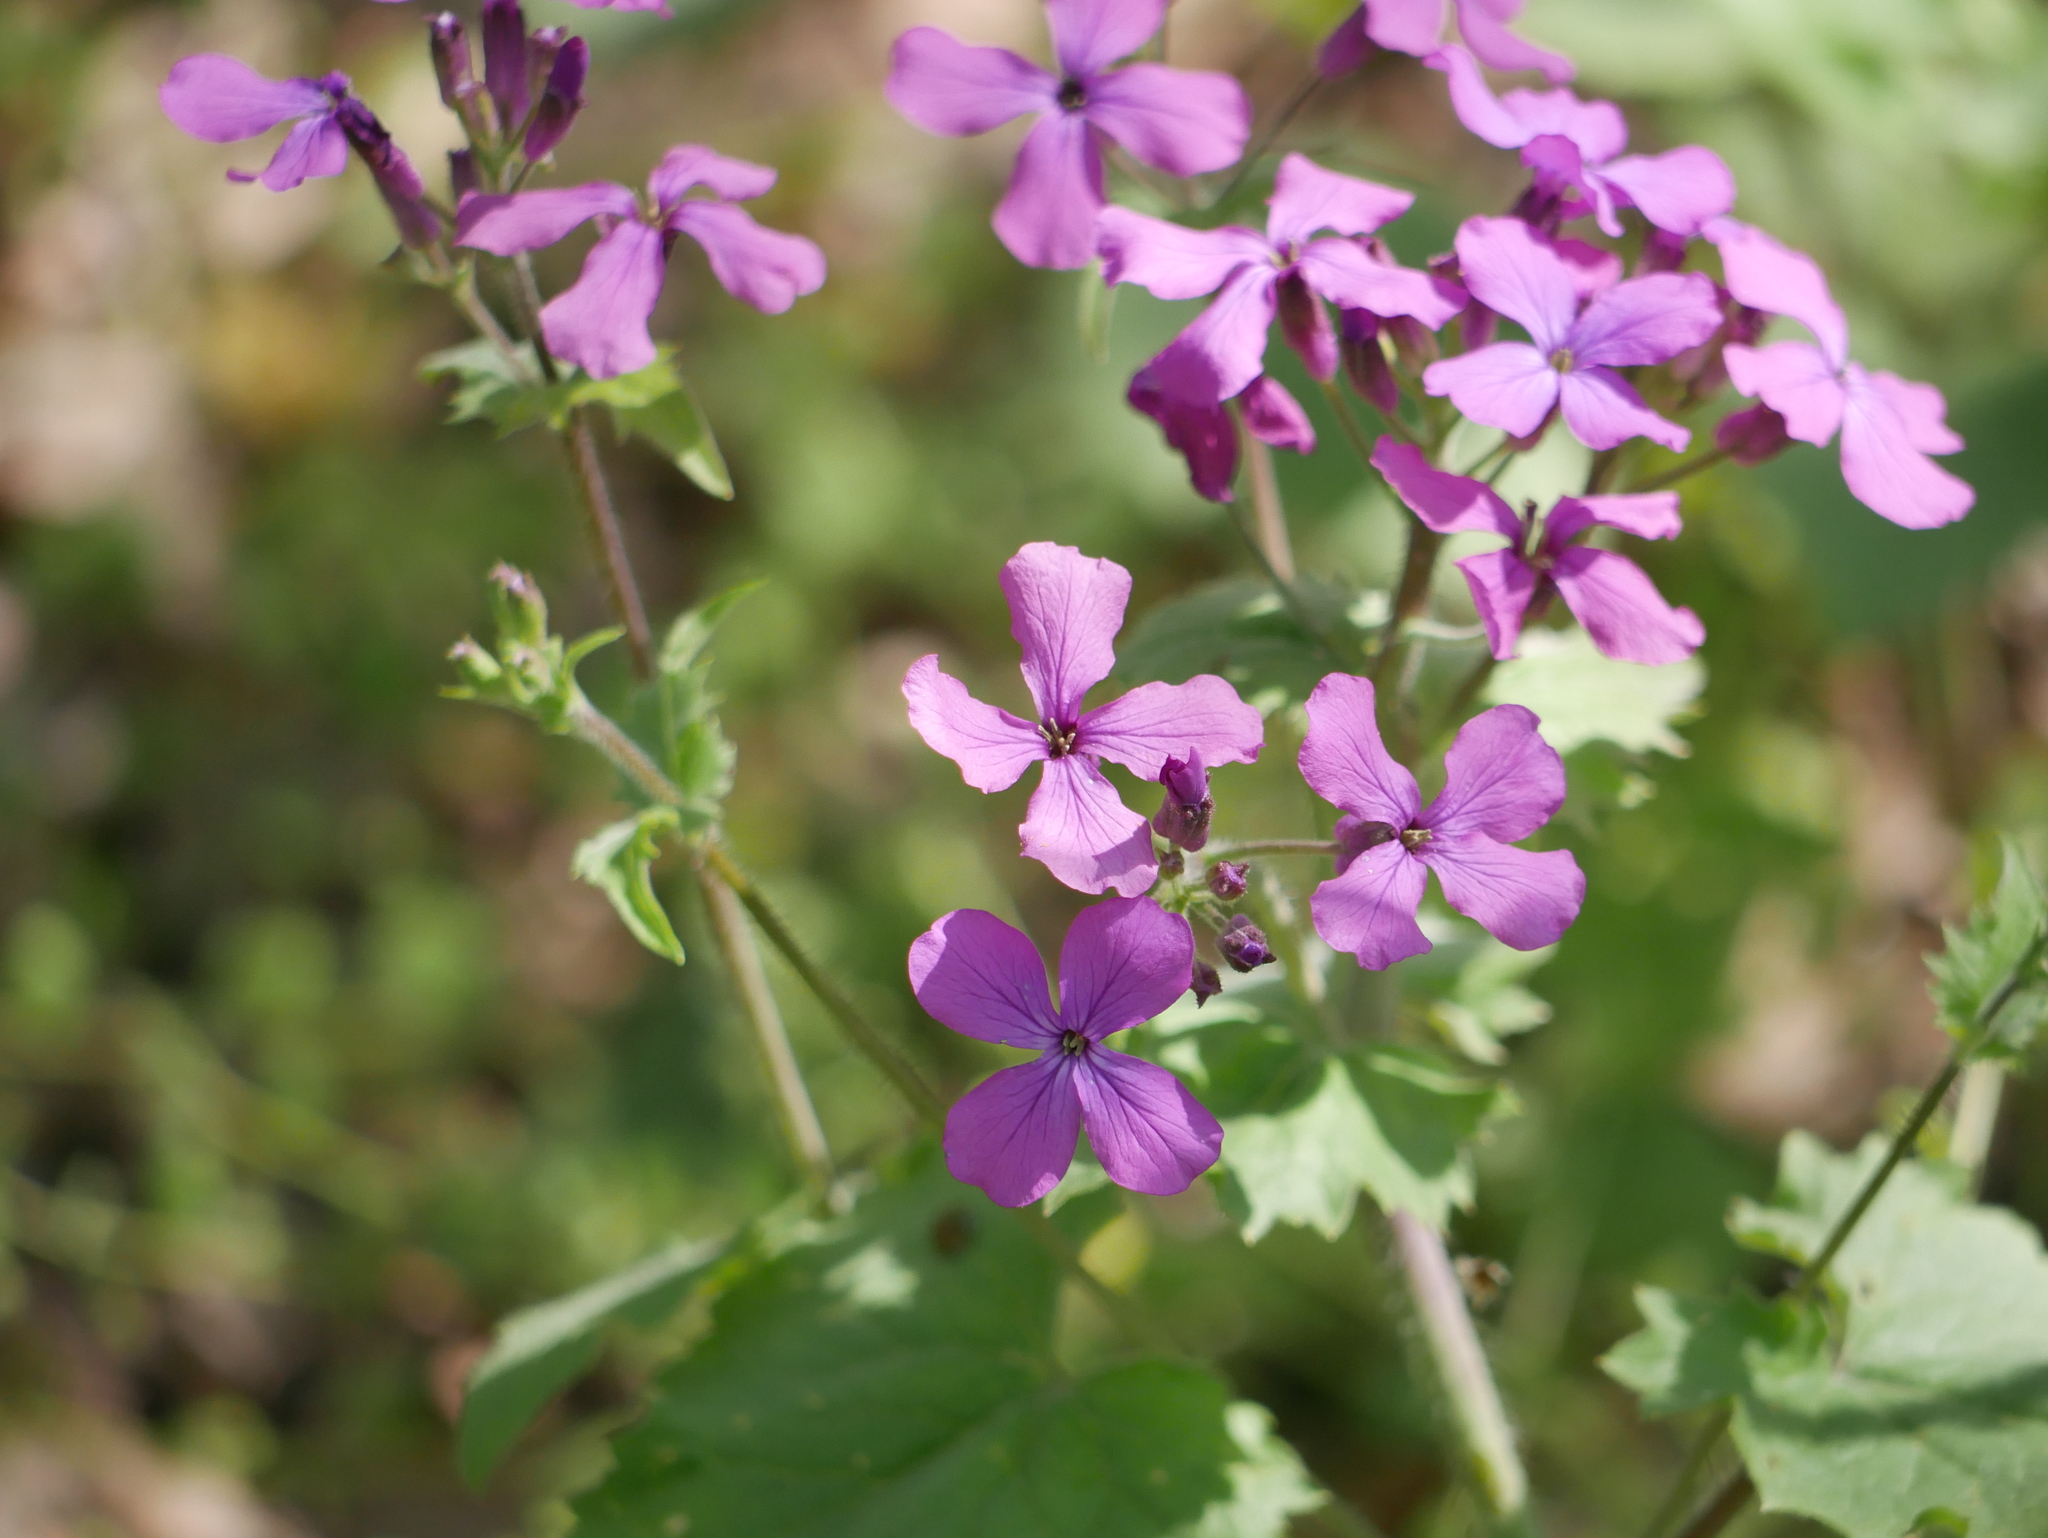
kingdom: Plantae
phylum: Tracheophyta
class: Magnoliopsida
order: Brassicales
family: Brassicaceae
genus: Lunaria
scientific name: Lunaria annua
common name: Honesty
